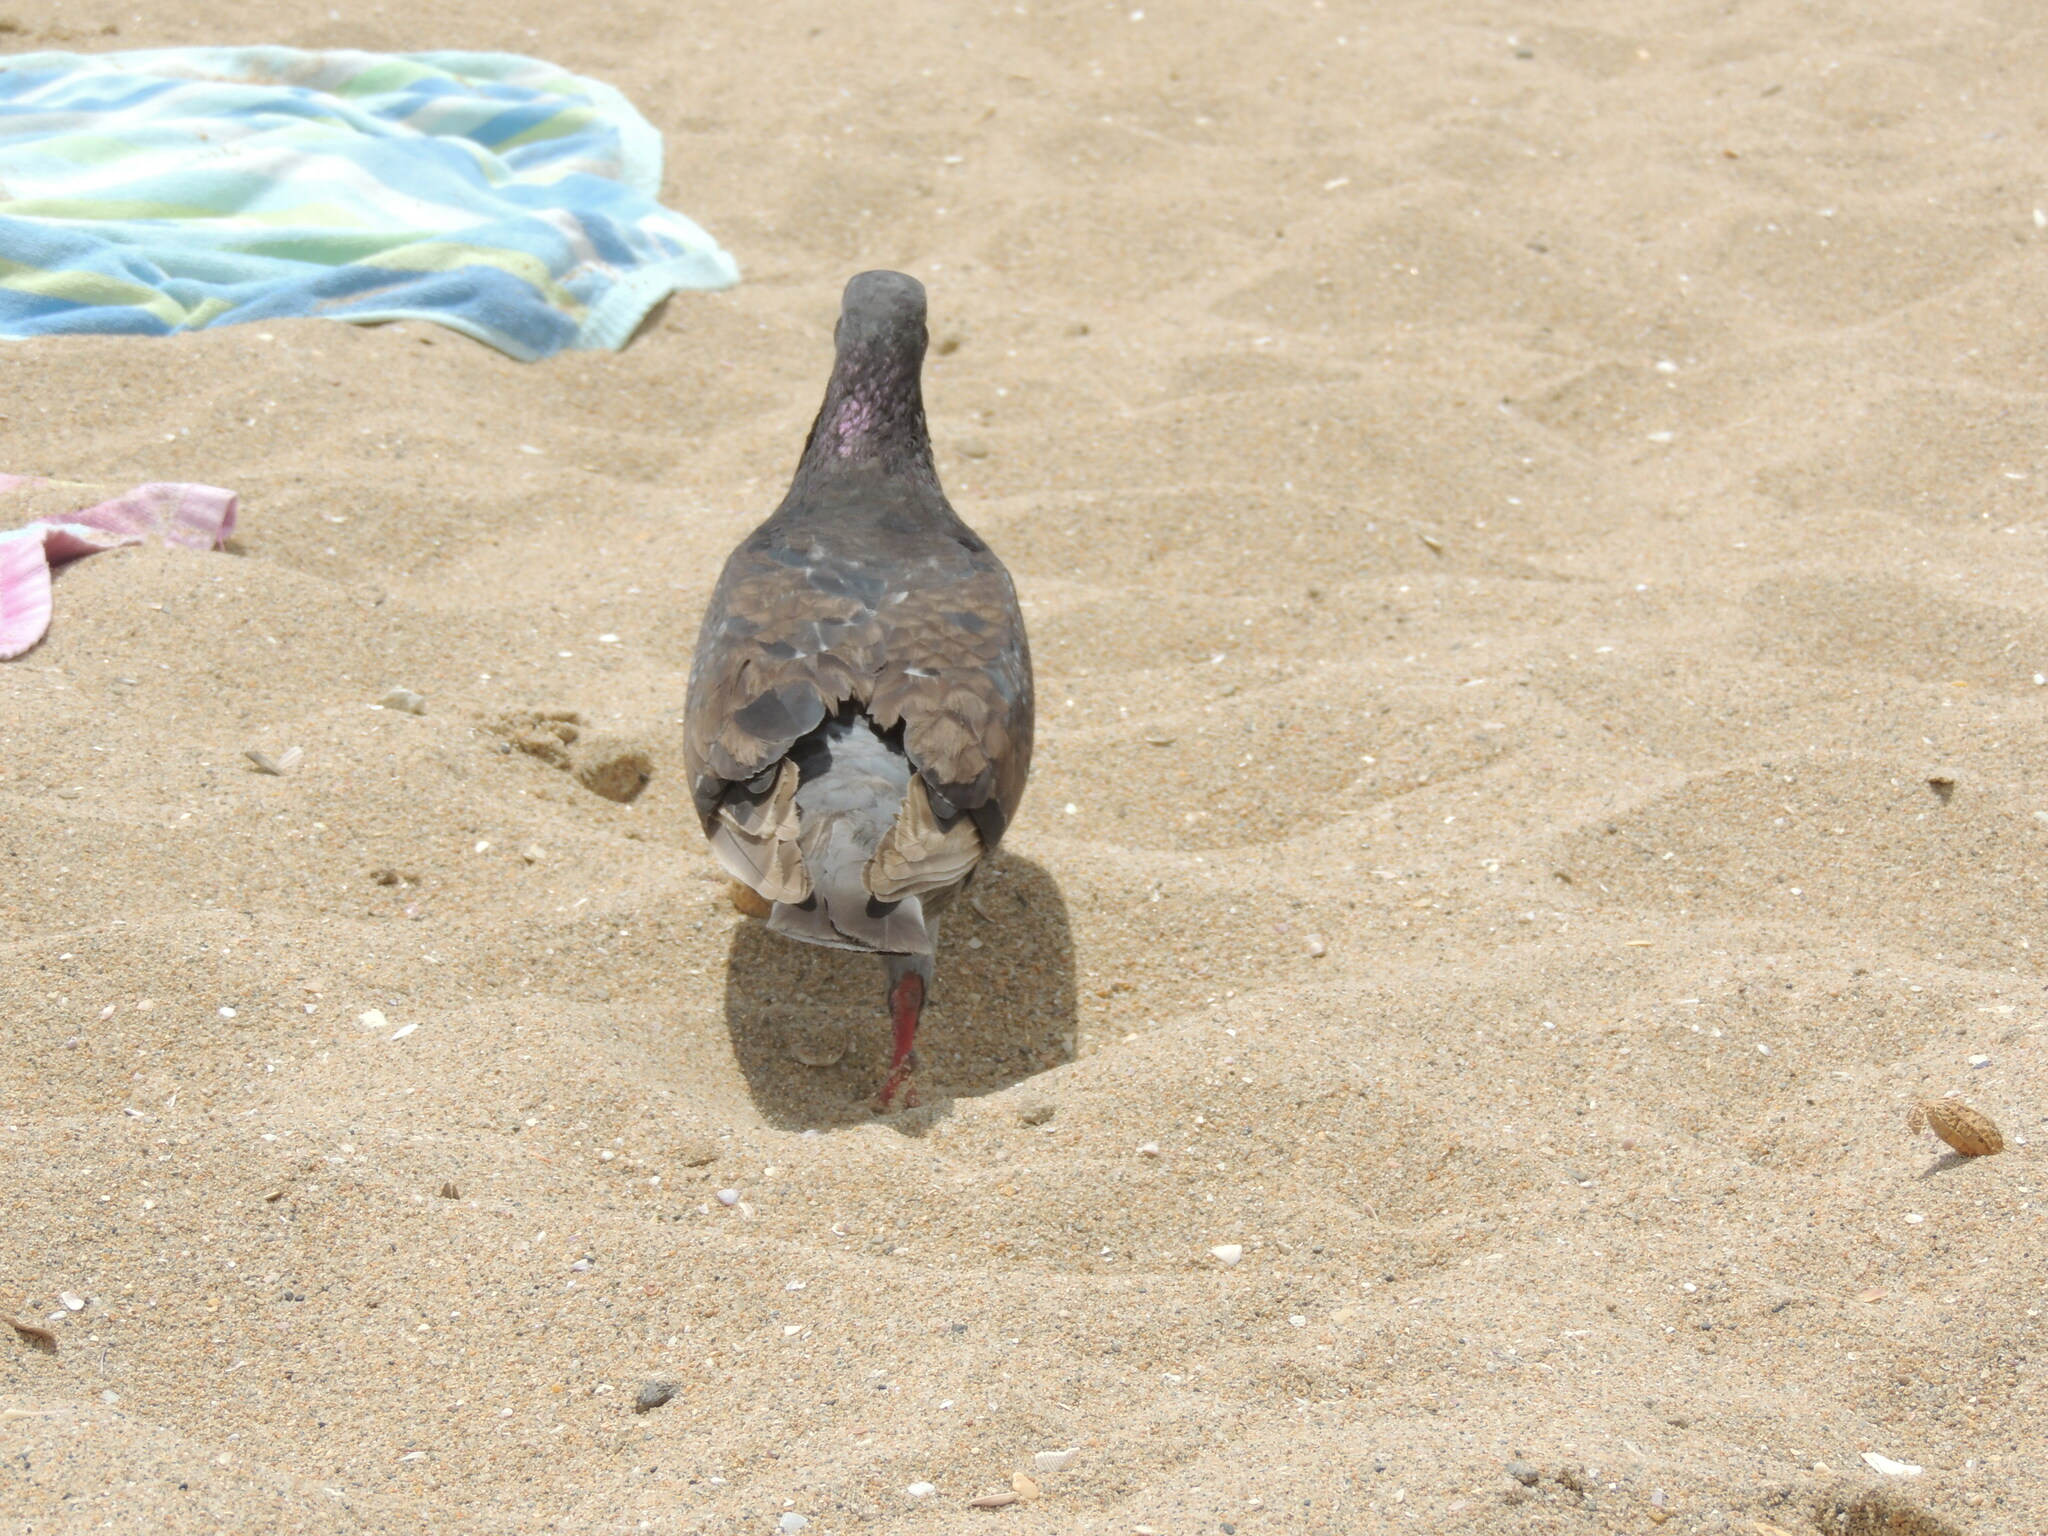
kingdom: Animalia
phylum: Chordata
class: Aves
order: Columbiformes
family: Columbidae
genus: Columba
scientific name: Columba livia
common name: Rock pigeon
